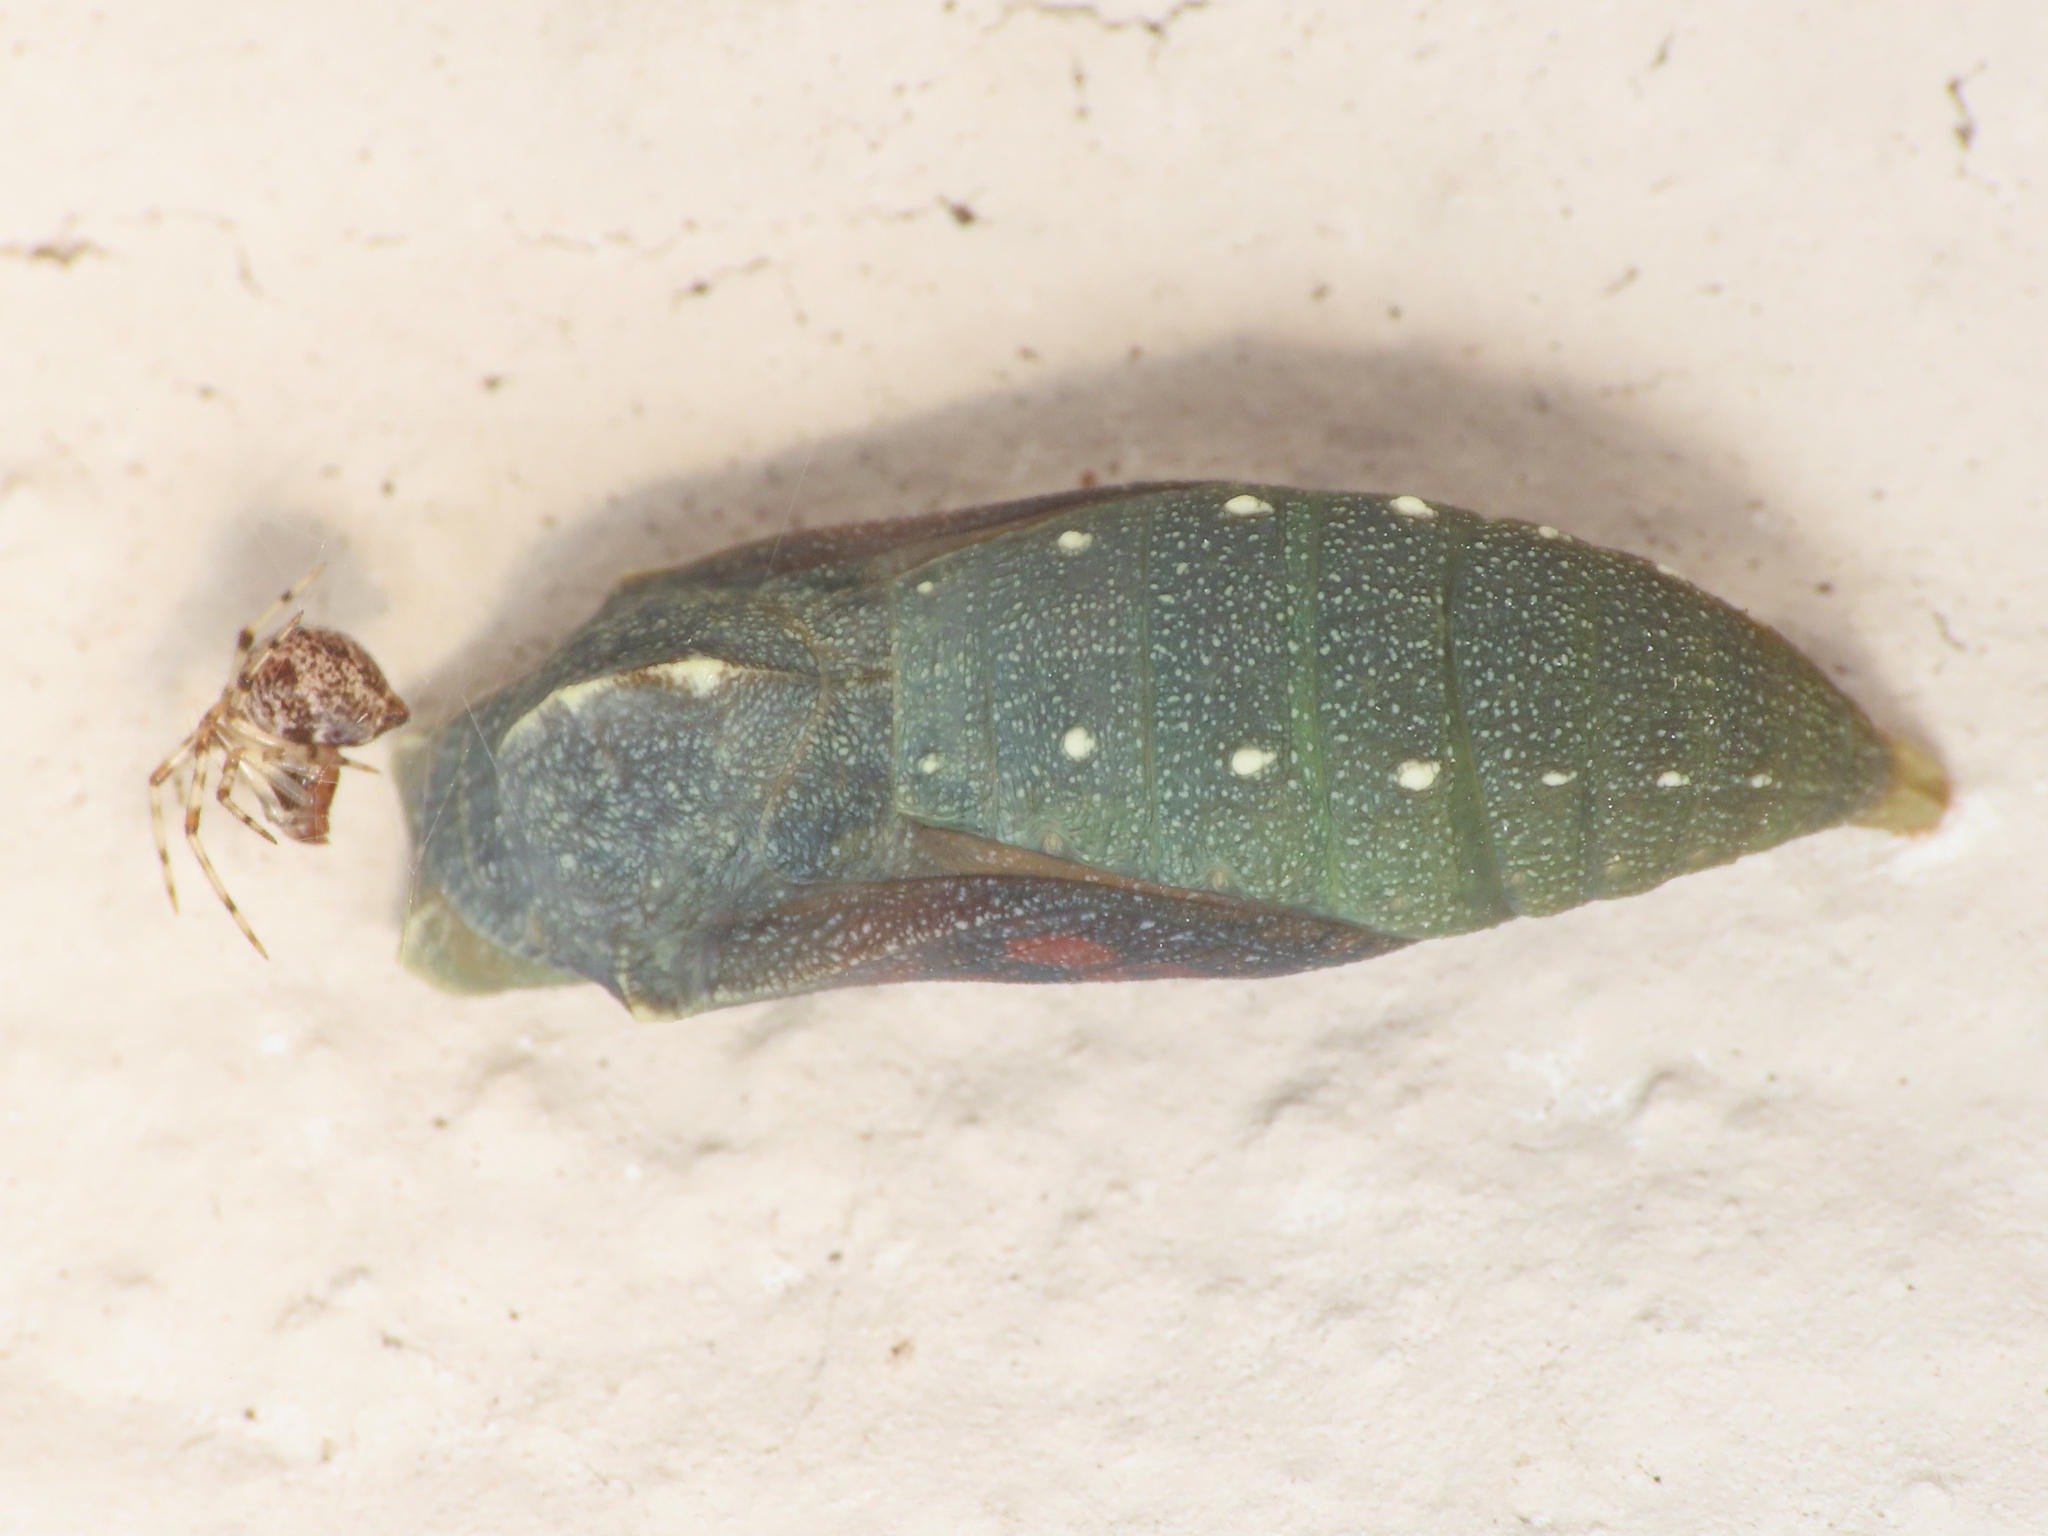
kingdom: Animalia
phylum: Arthropoda
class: Insecta
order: Lepidoptera
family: Nymphalidae
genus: Pararge
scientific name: Pararge Lasiommata megera
